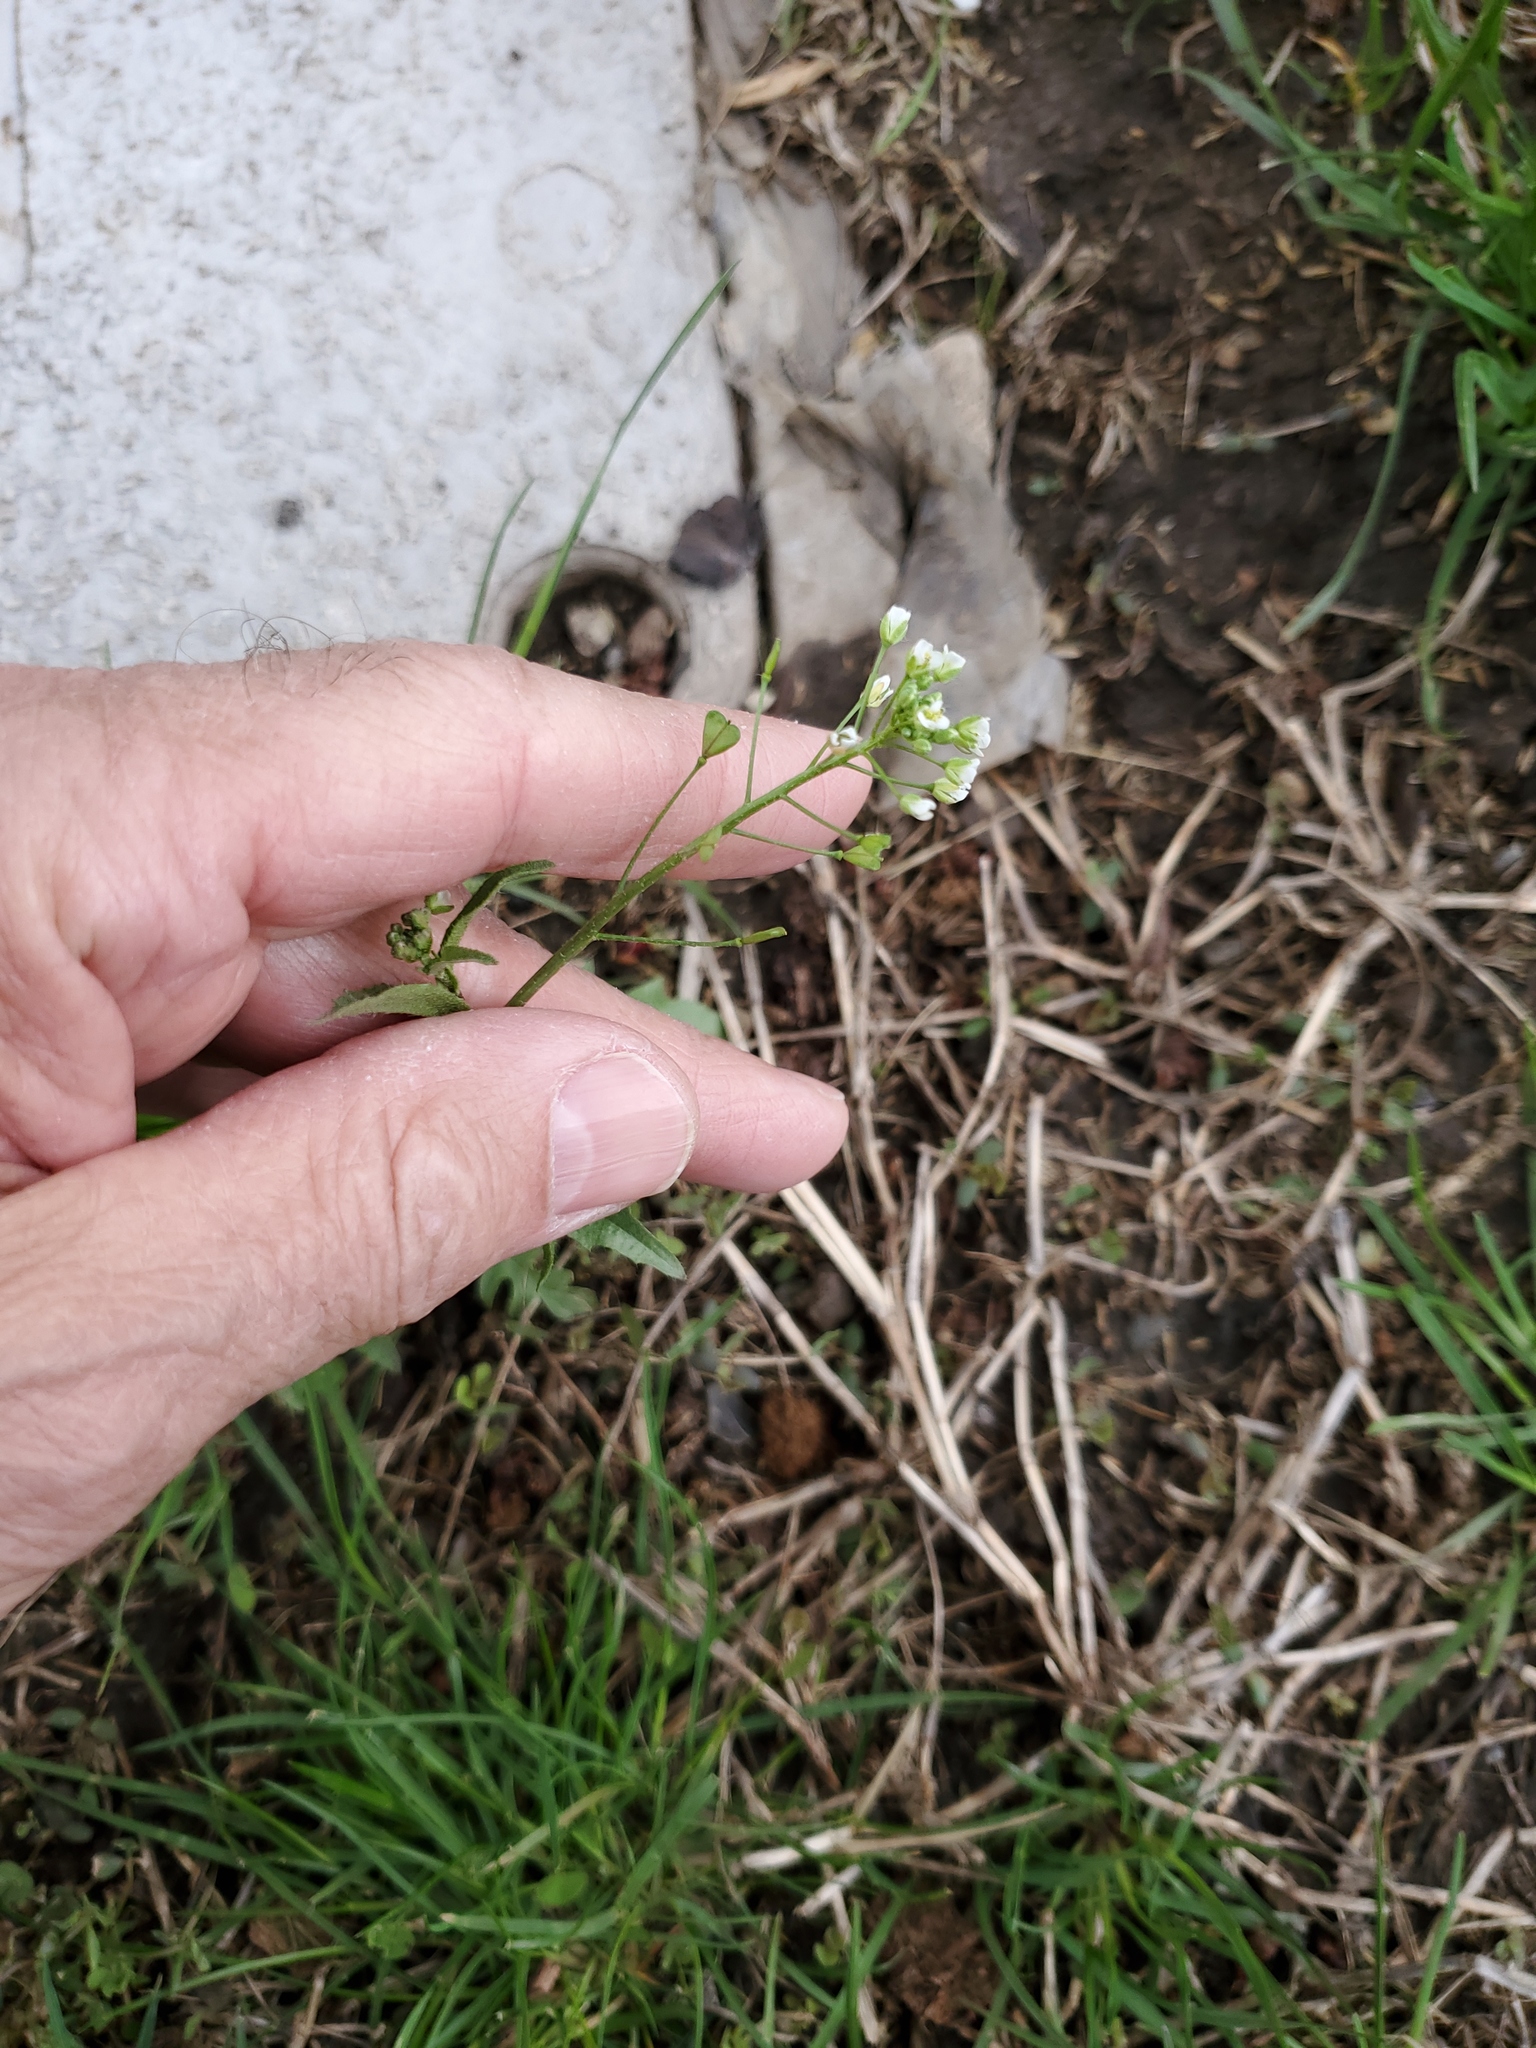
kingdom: Plantae
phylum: Tracheophyta
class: Magnoliopsida
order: Brassicales
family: Brassicaceae
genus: Capsella
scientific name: Capsella bursa-pastoris
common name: Shepherd's purse
